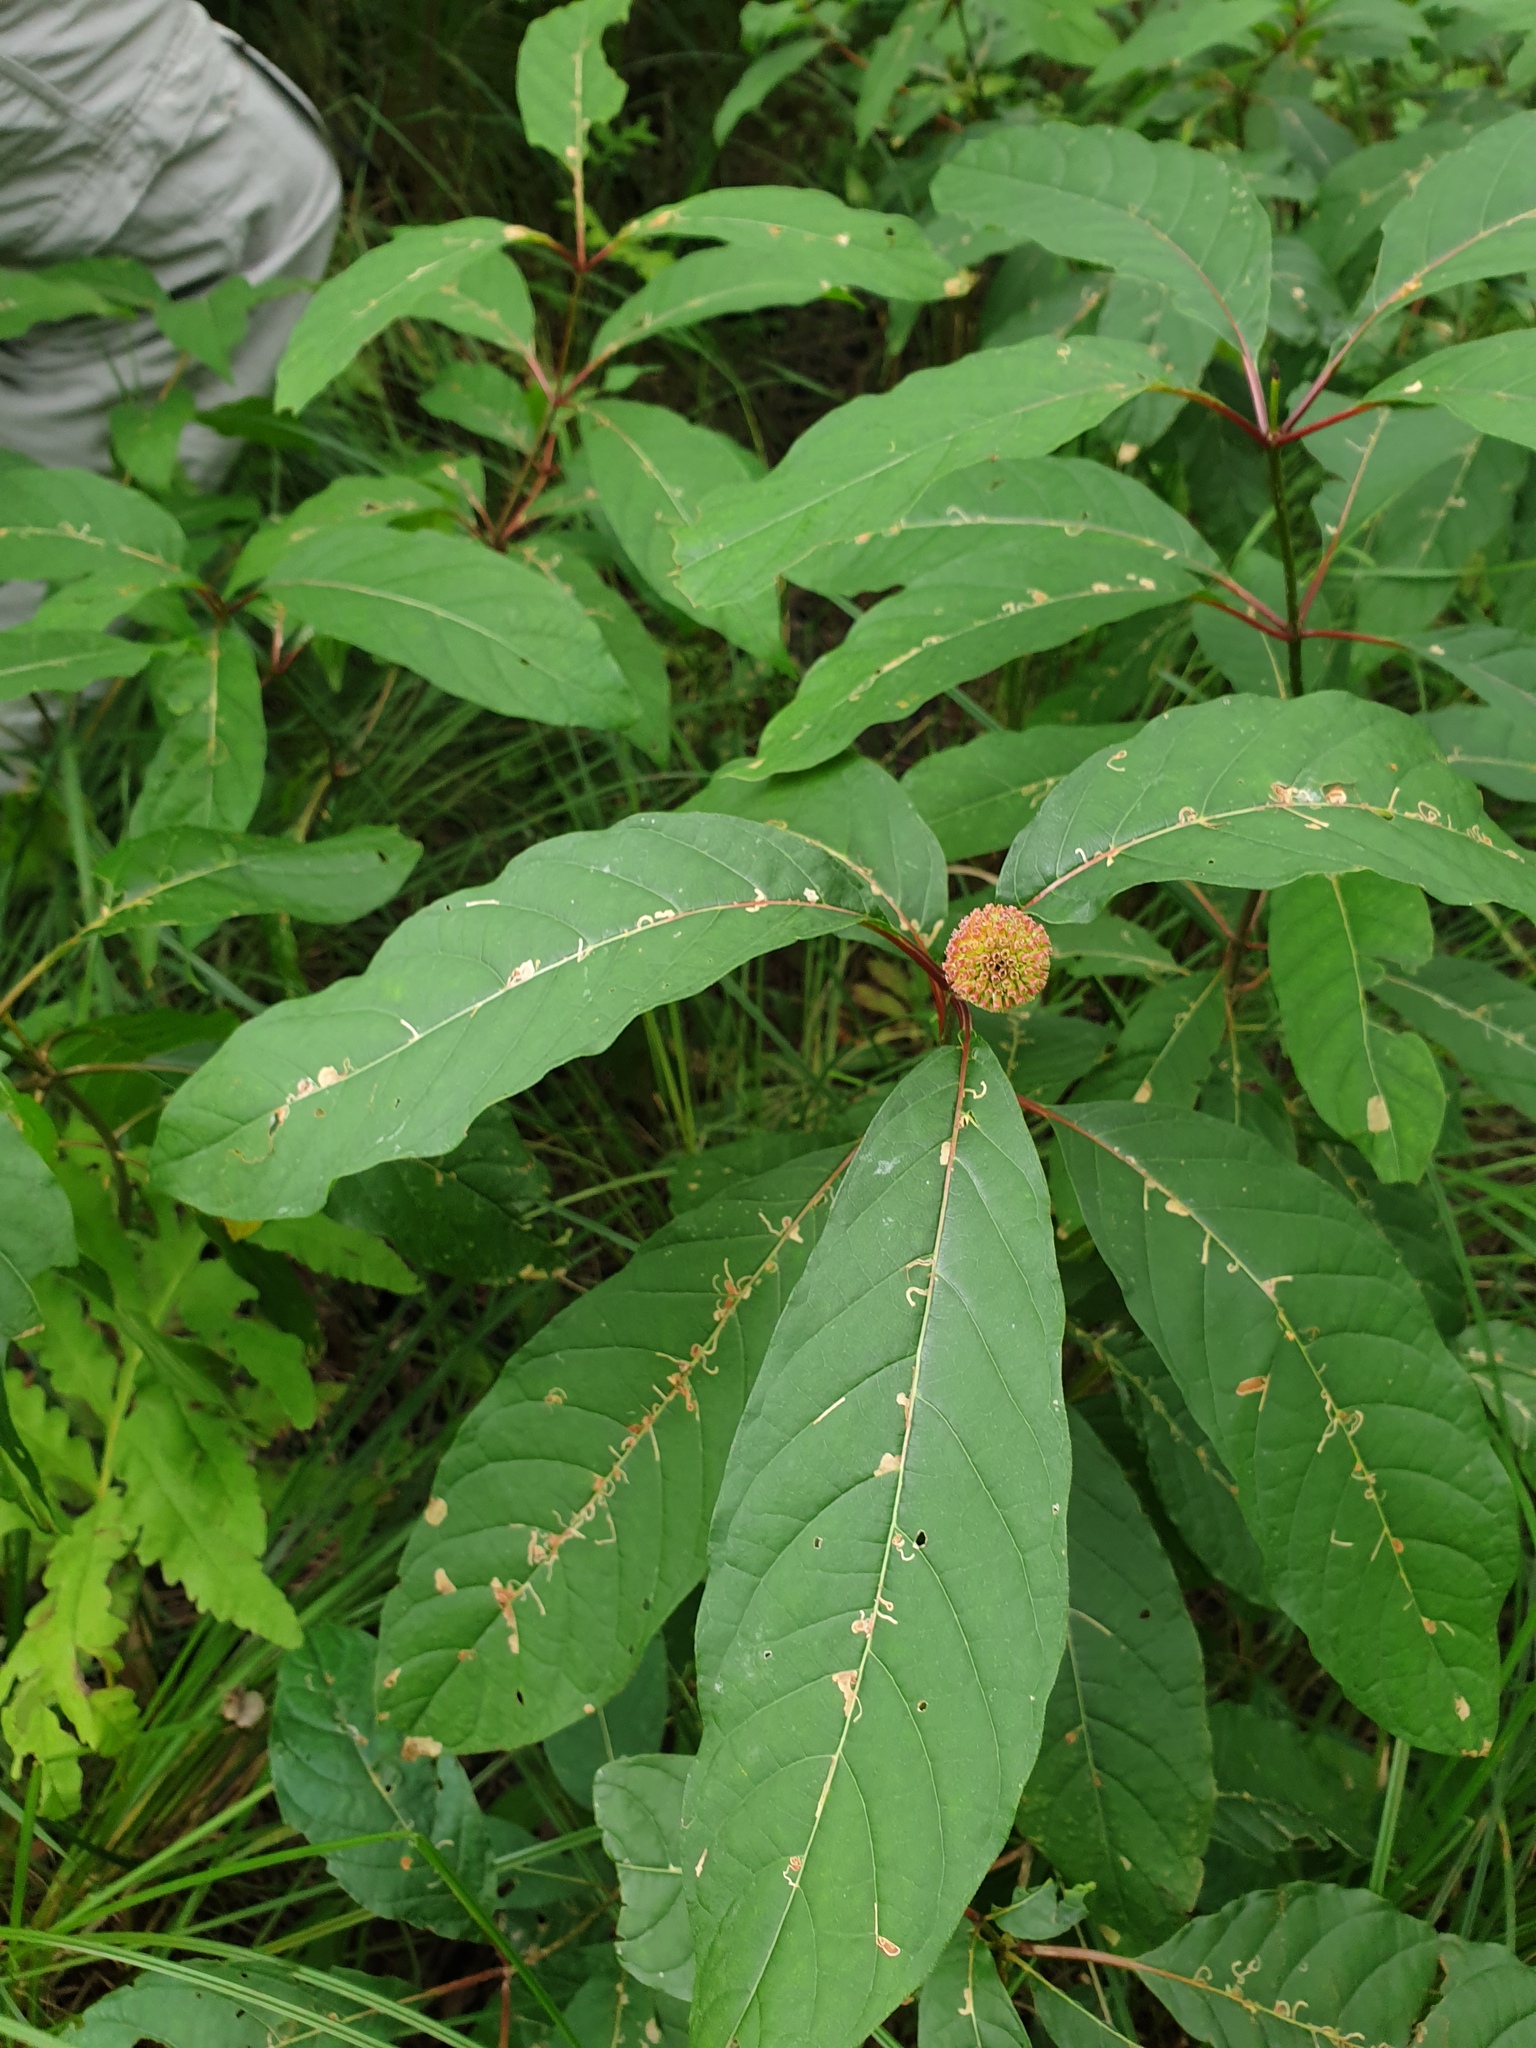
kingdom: Plantae
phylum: Tracheophyta
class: Magnoliopsida
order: Gentianales
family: Rubiaceae
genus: Cephalanthus
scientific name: Cephalanthus occidentalis
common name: Button-willow
